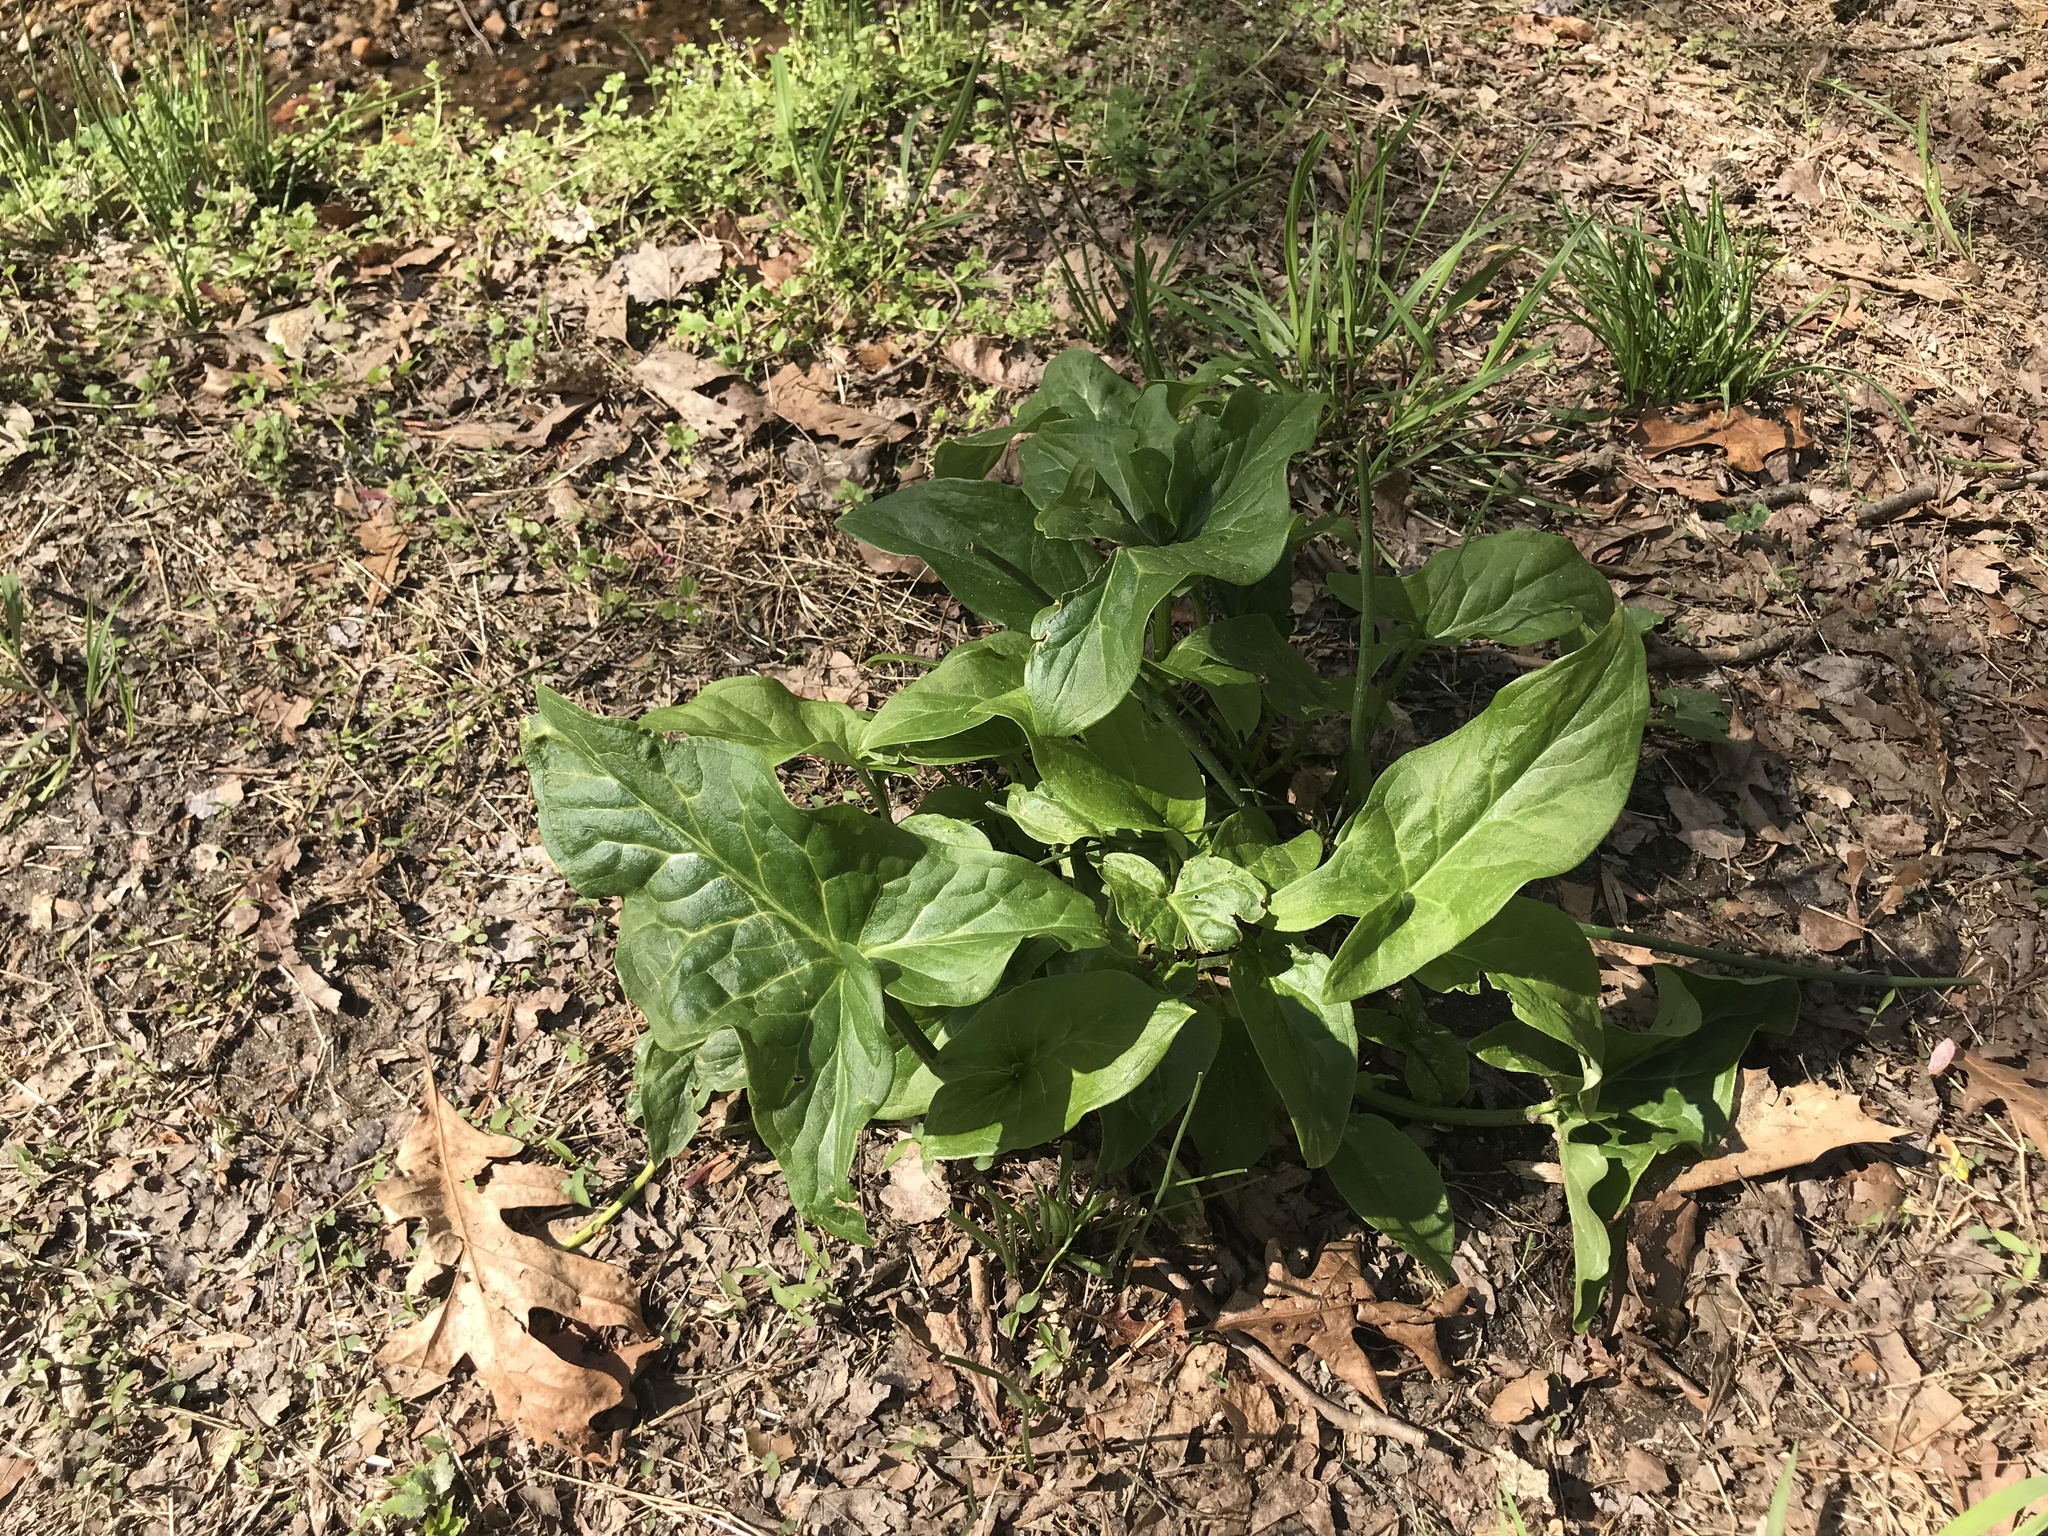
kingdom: Plantae
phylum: Tracheophyta
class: Liliopsida
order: Alismatales
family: Araceae
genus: Arum
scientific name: Arum italicum
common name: Italian lords-and-ladies
